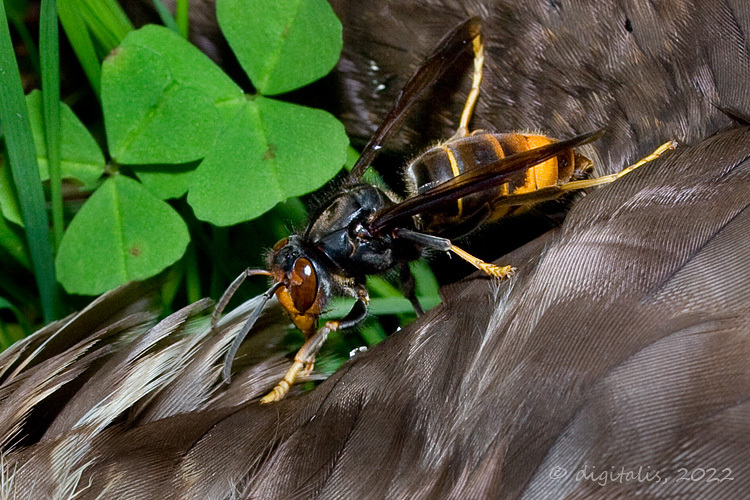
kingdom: Animalia
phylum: Arthropoda
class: Insecta
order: Hymenoptera
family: Vespidae
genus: Vespa
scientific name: Vespa velutina
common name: Asian hornet
